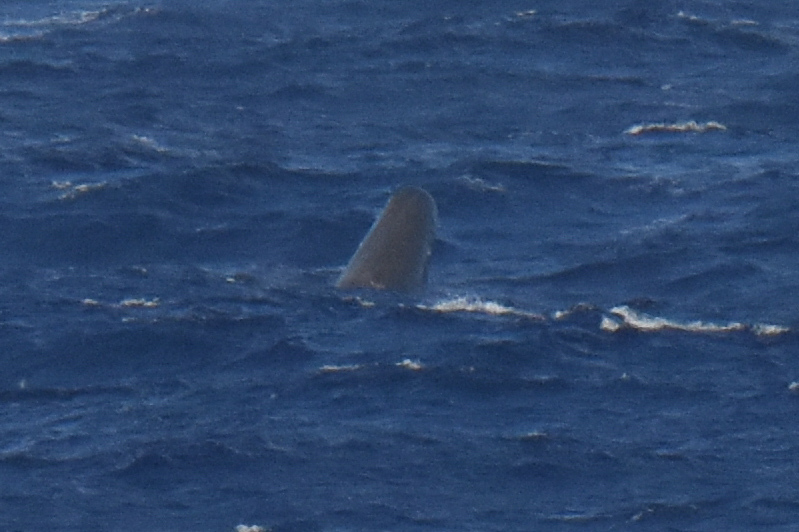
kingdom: Animalia
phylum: Chordata
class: Mammalia
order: Cetacea
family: Physeteridae
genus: Physeter
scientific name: Physeter macrocephalus
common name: Sperm whale
